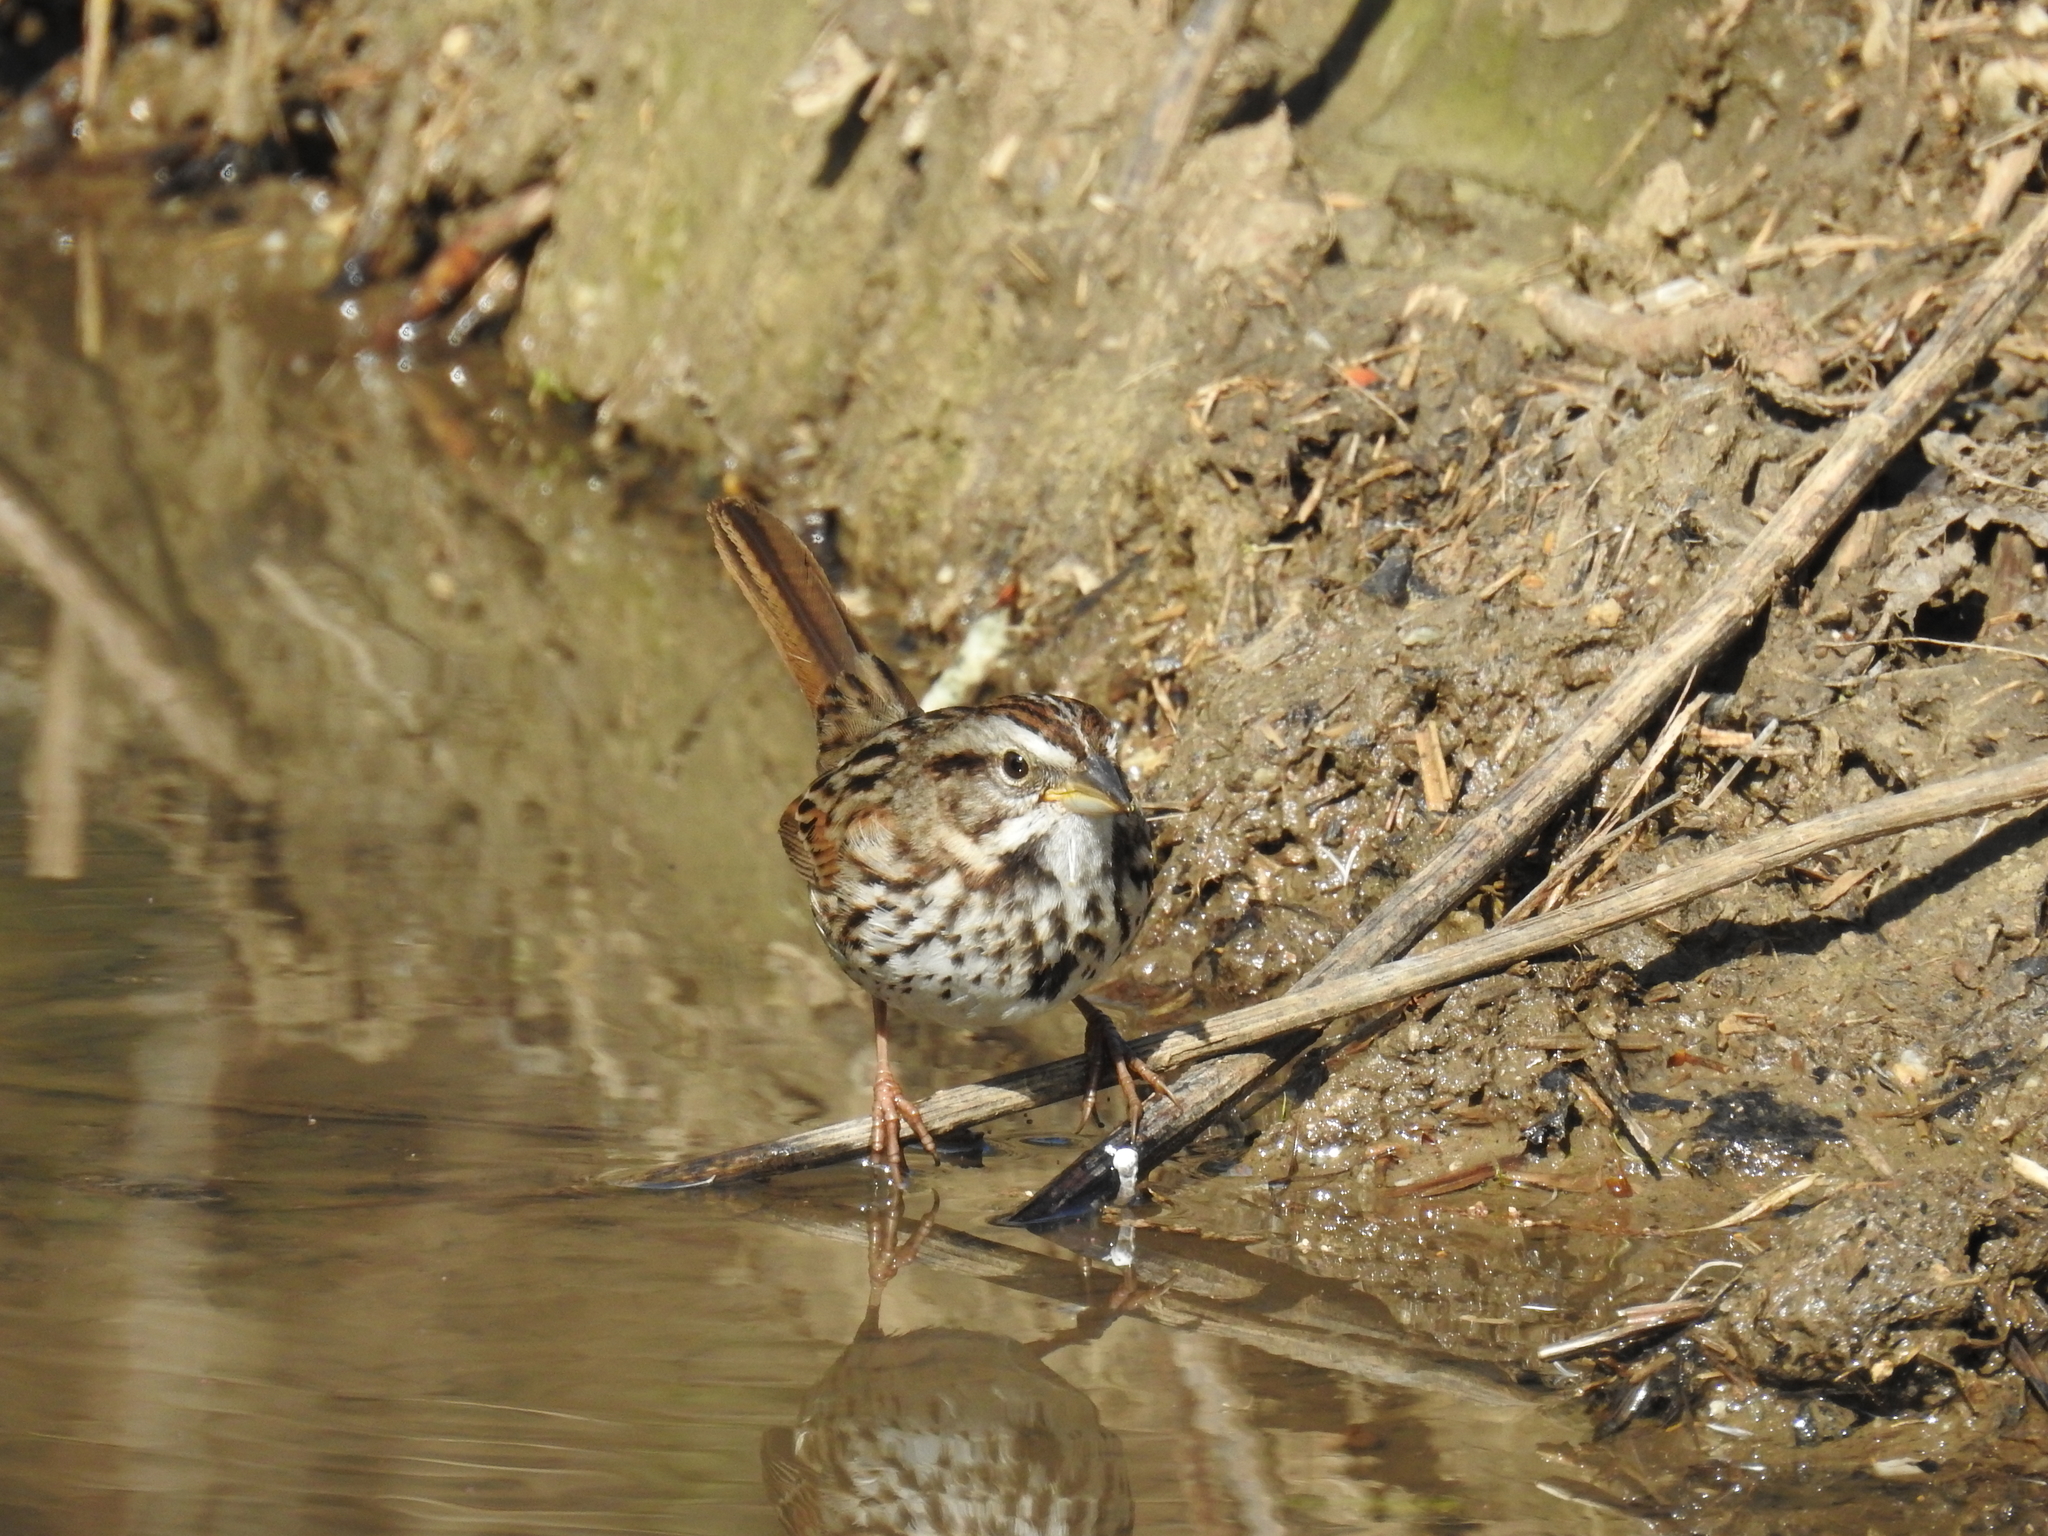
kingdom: Animalia
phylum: Chordata
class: Aves
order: Passeriformes
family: Passerellidae
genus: Melospiza
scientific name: Melospiza melodia
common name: Song sparrow
